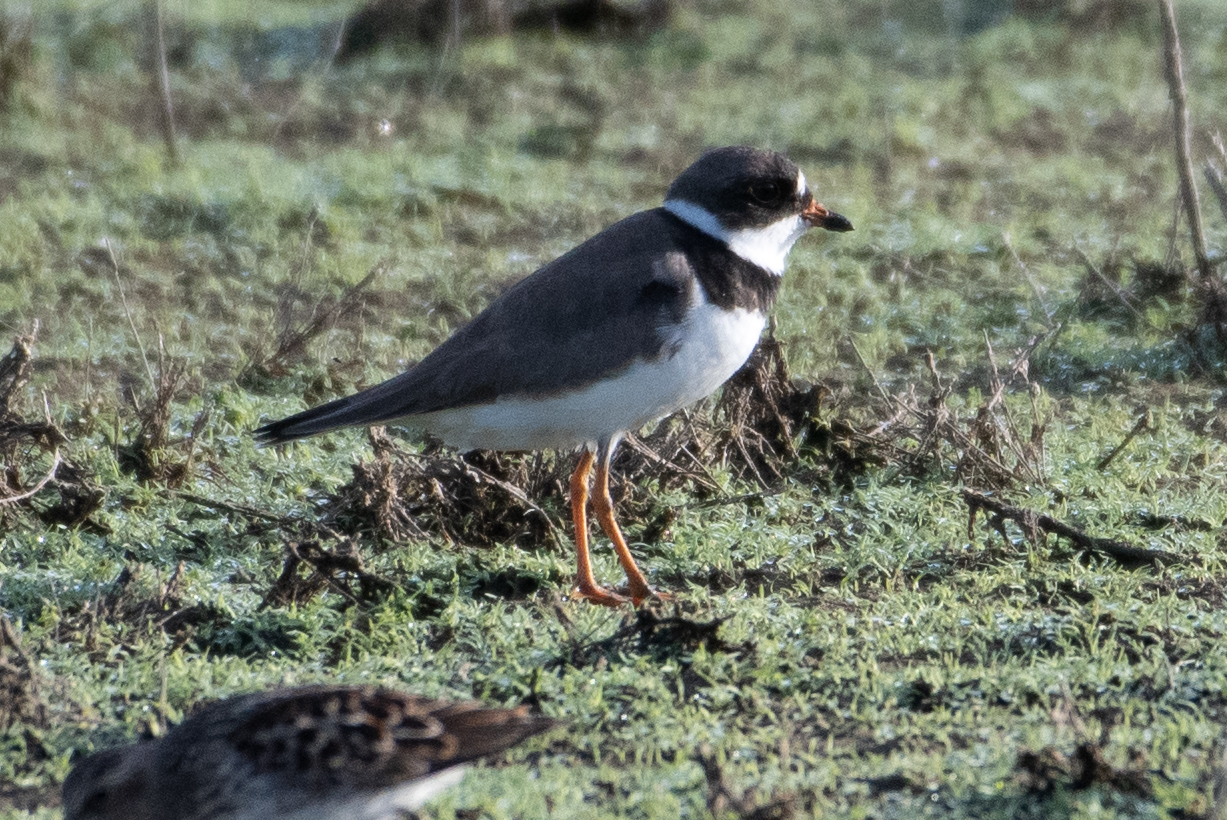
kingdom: Animalia
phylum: Chordata
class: Aves
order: Charadriiformes
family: Charadriidae
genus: Charadrius
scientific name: Charadrius semipalmatus
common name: Semipalmated plover
